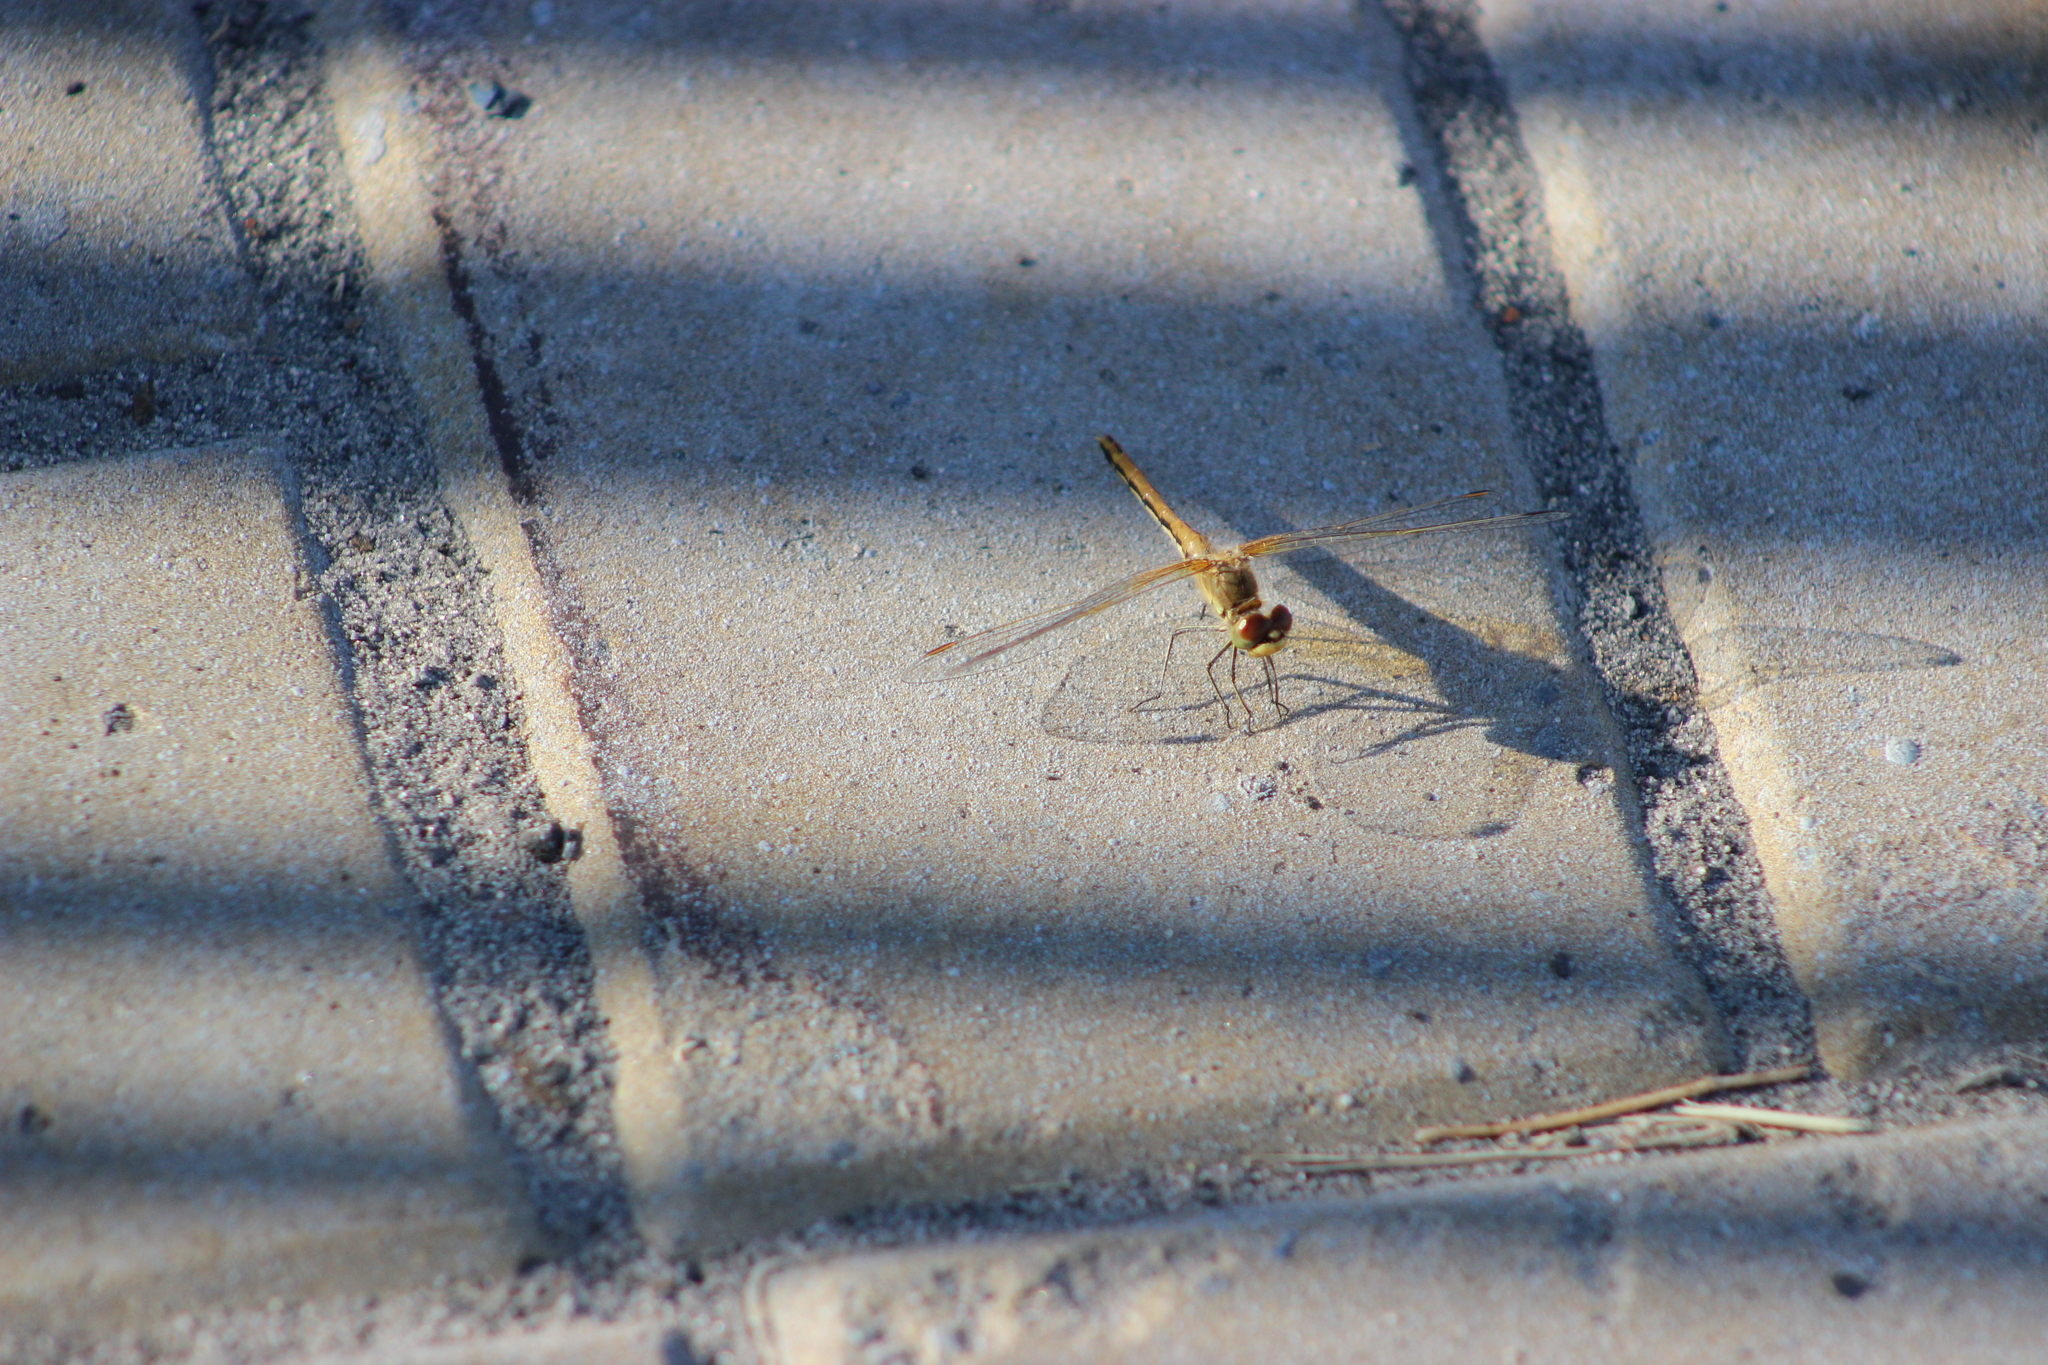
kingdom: Animalia
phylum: Arthropoda
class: Insecta
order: Odonata
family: Libellulidae
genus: Sympetrum
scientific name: Sympetrum flaveolum
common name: Yellow-winged darter
